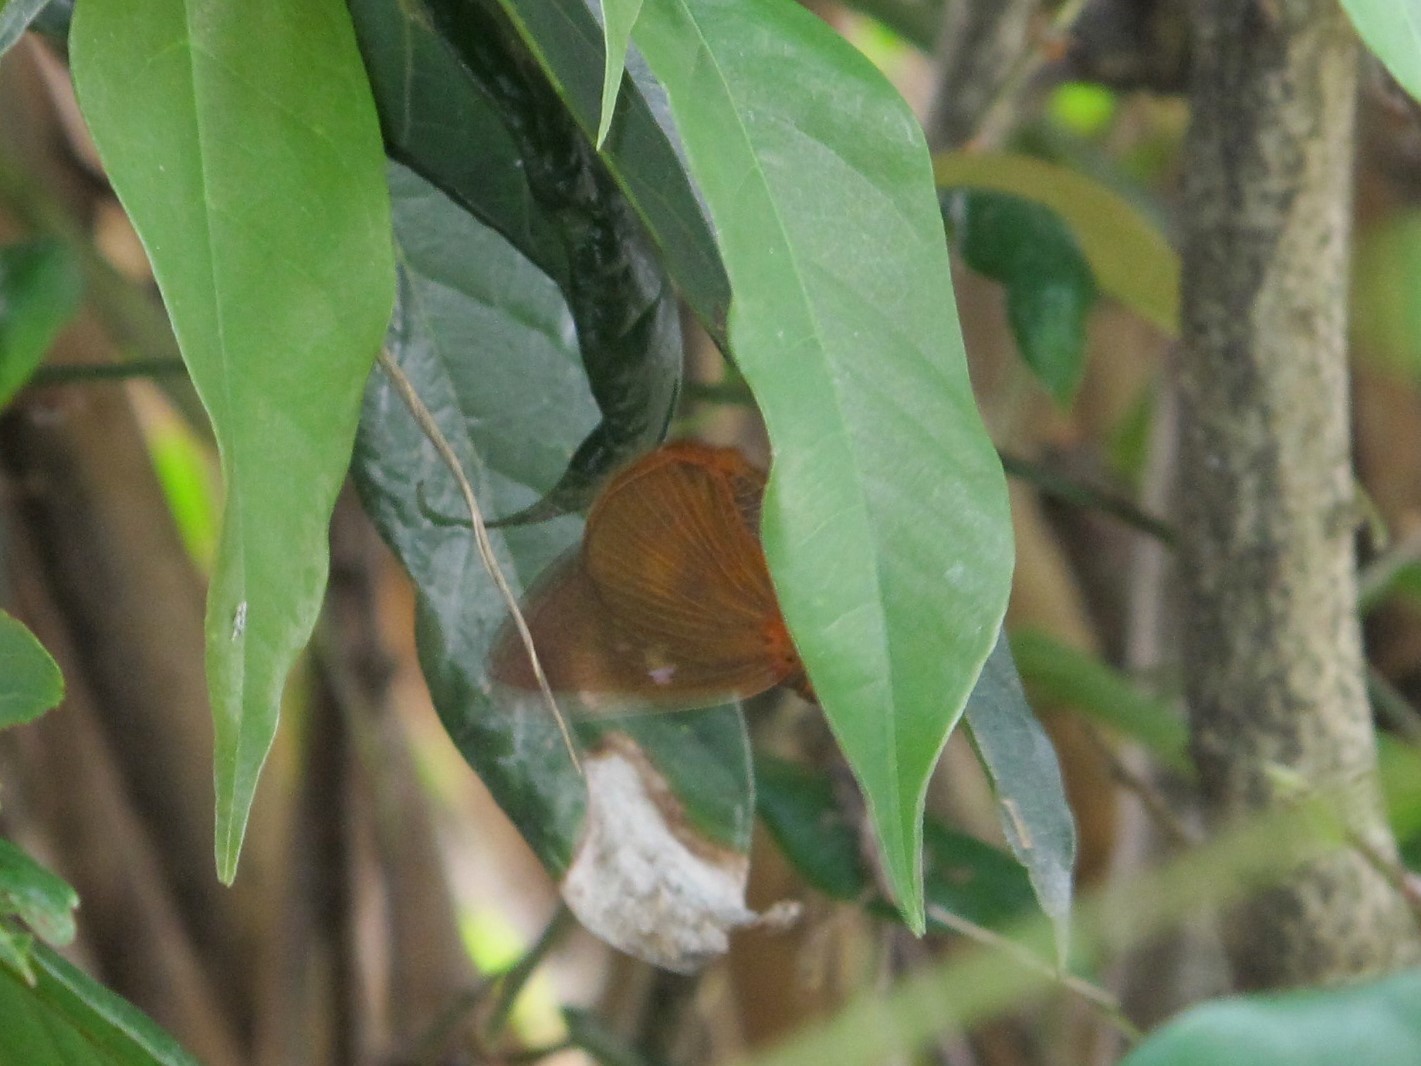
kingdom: Animalia
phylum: Arthropoda
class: Insecta
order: Lepidoptera
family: Hesperiidae
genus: Bibasis
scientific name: Bibasis jaina
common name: Common orange awlet
